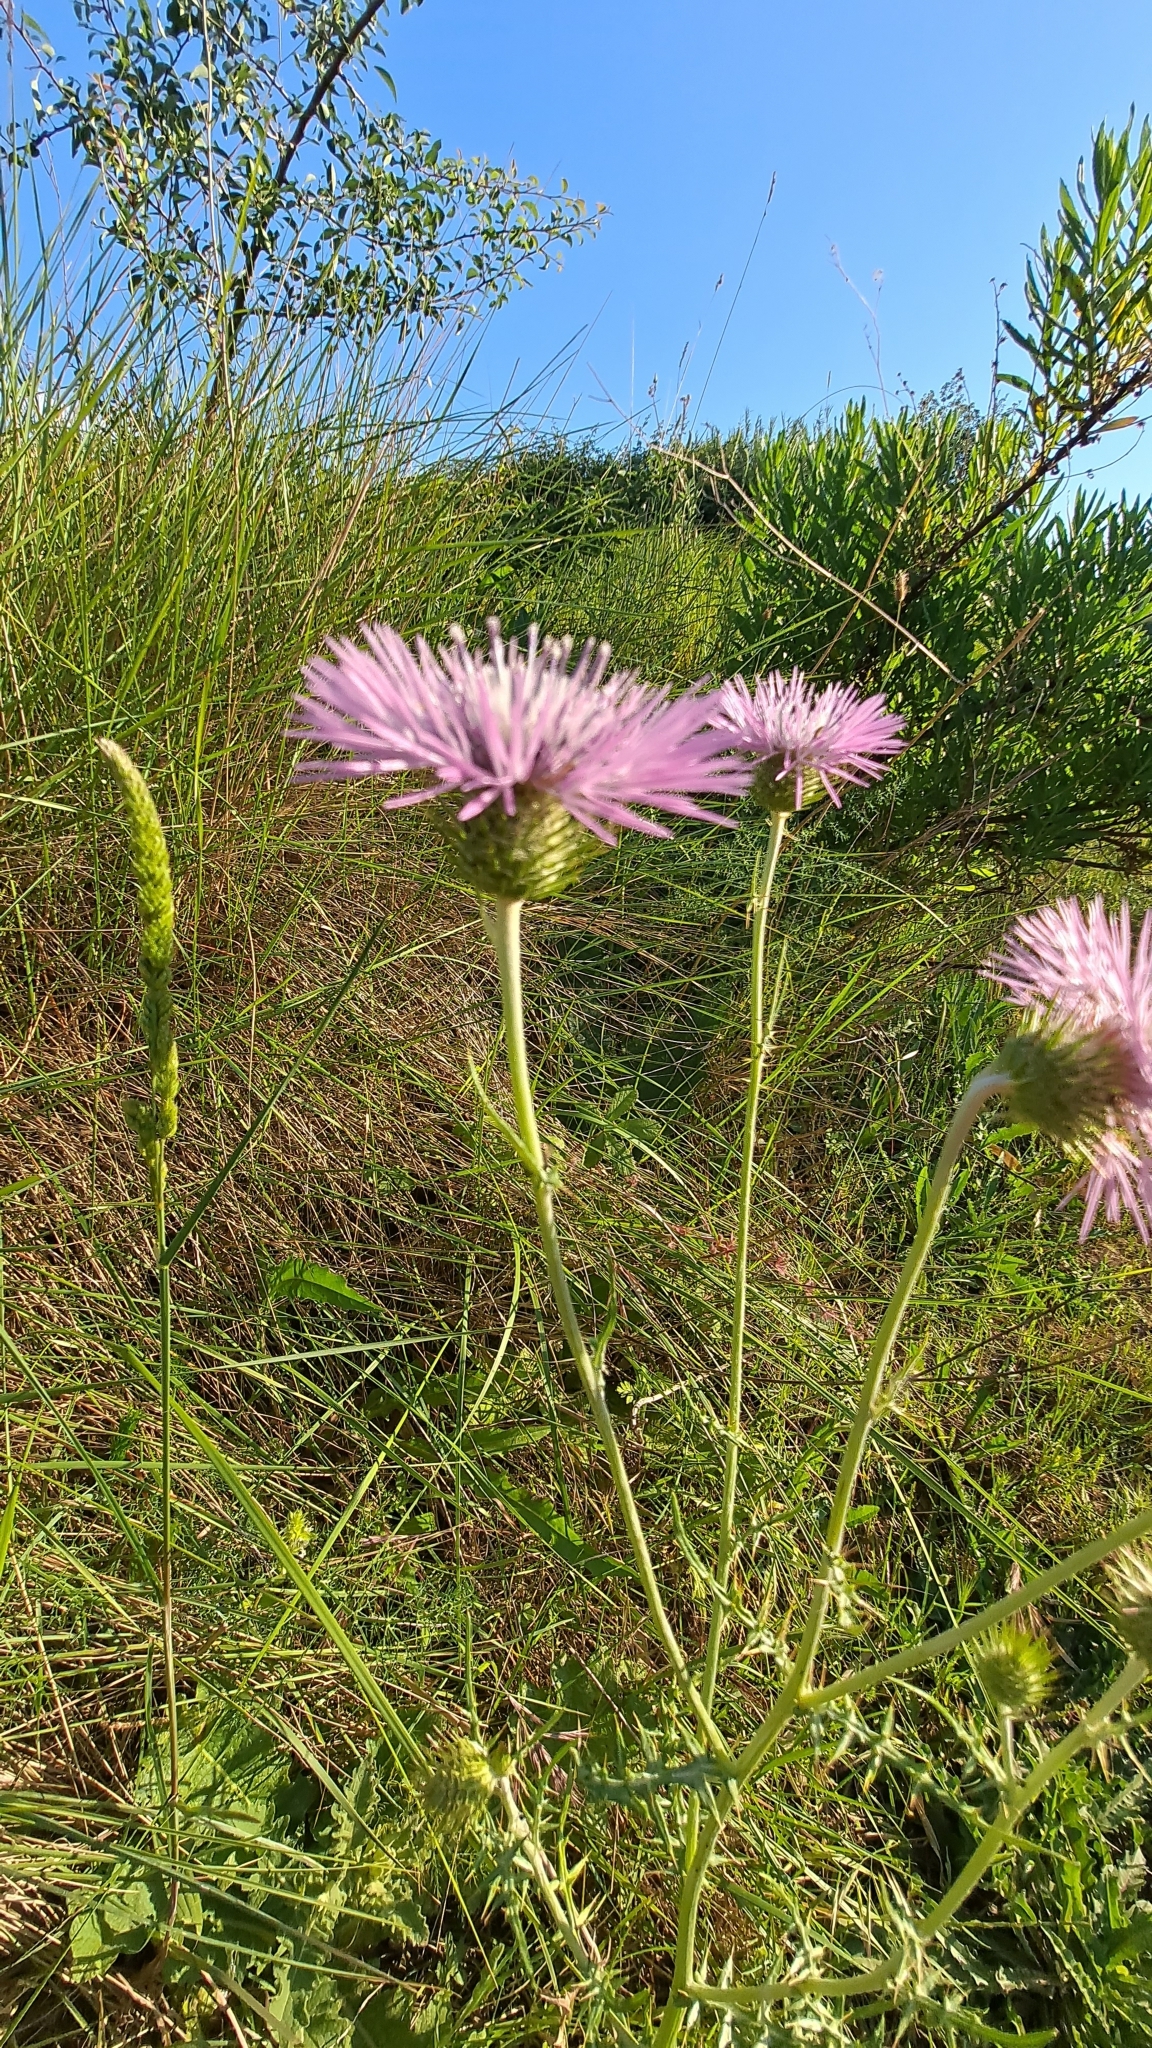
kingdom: Plantae
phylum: Tracheophyta
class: Magnoliopsida
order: Asterales
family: Asteraceae
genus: Galactites
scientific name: Galactites tomentosa
